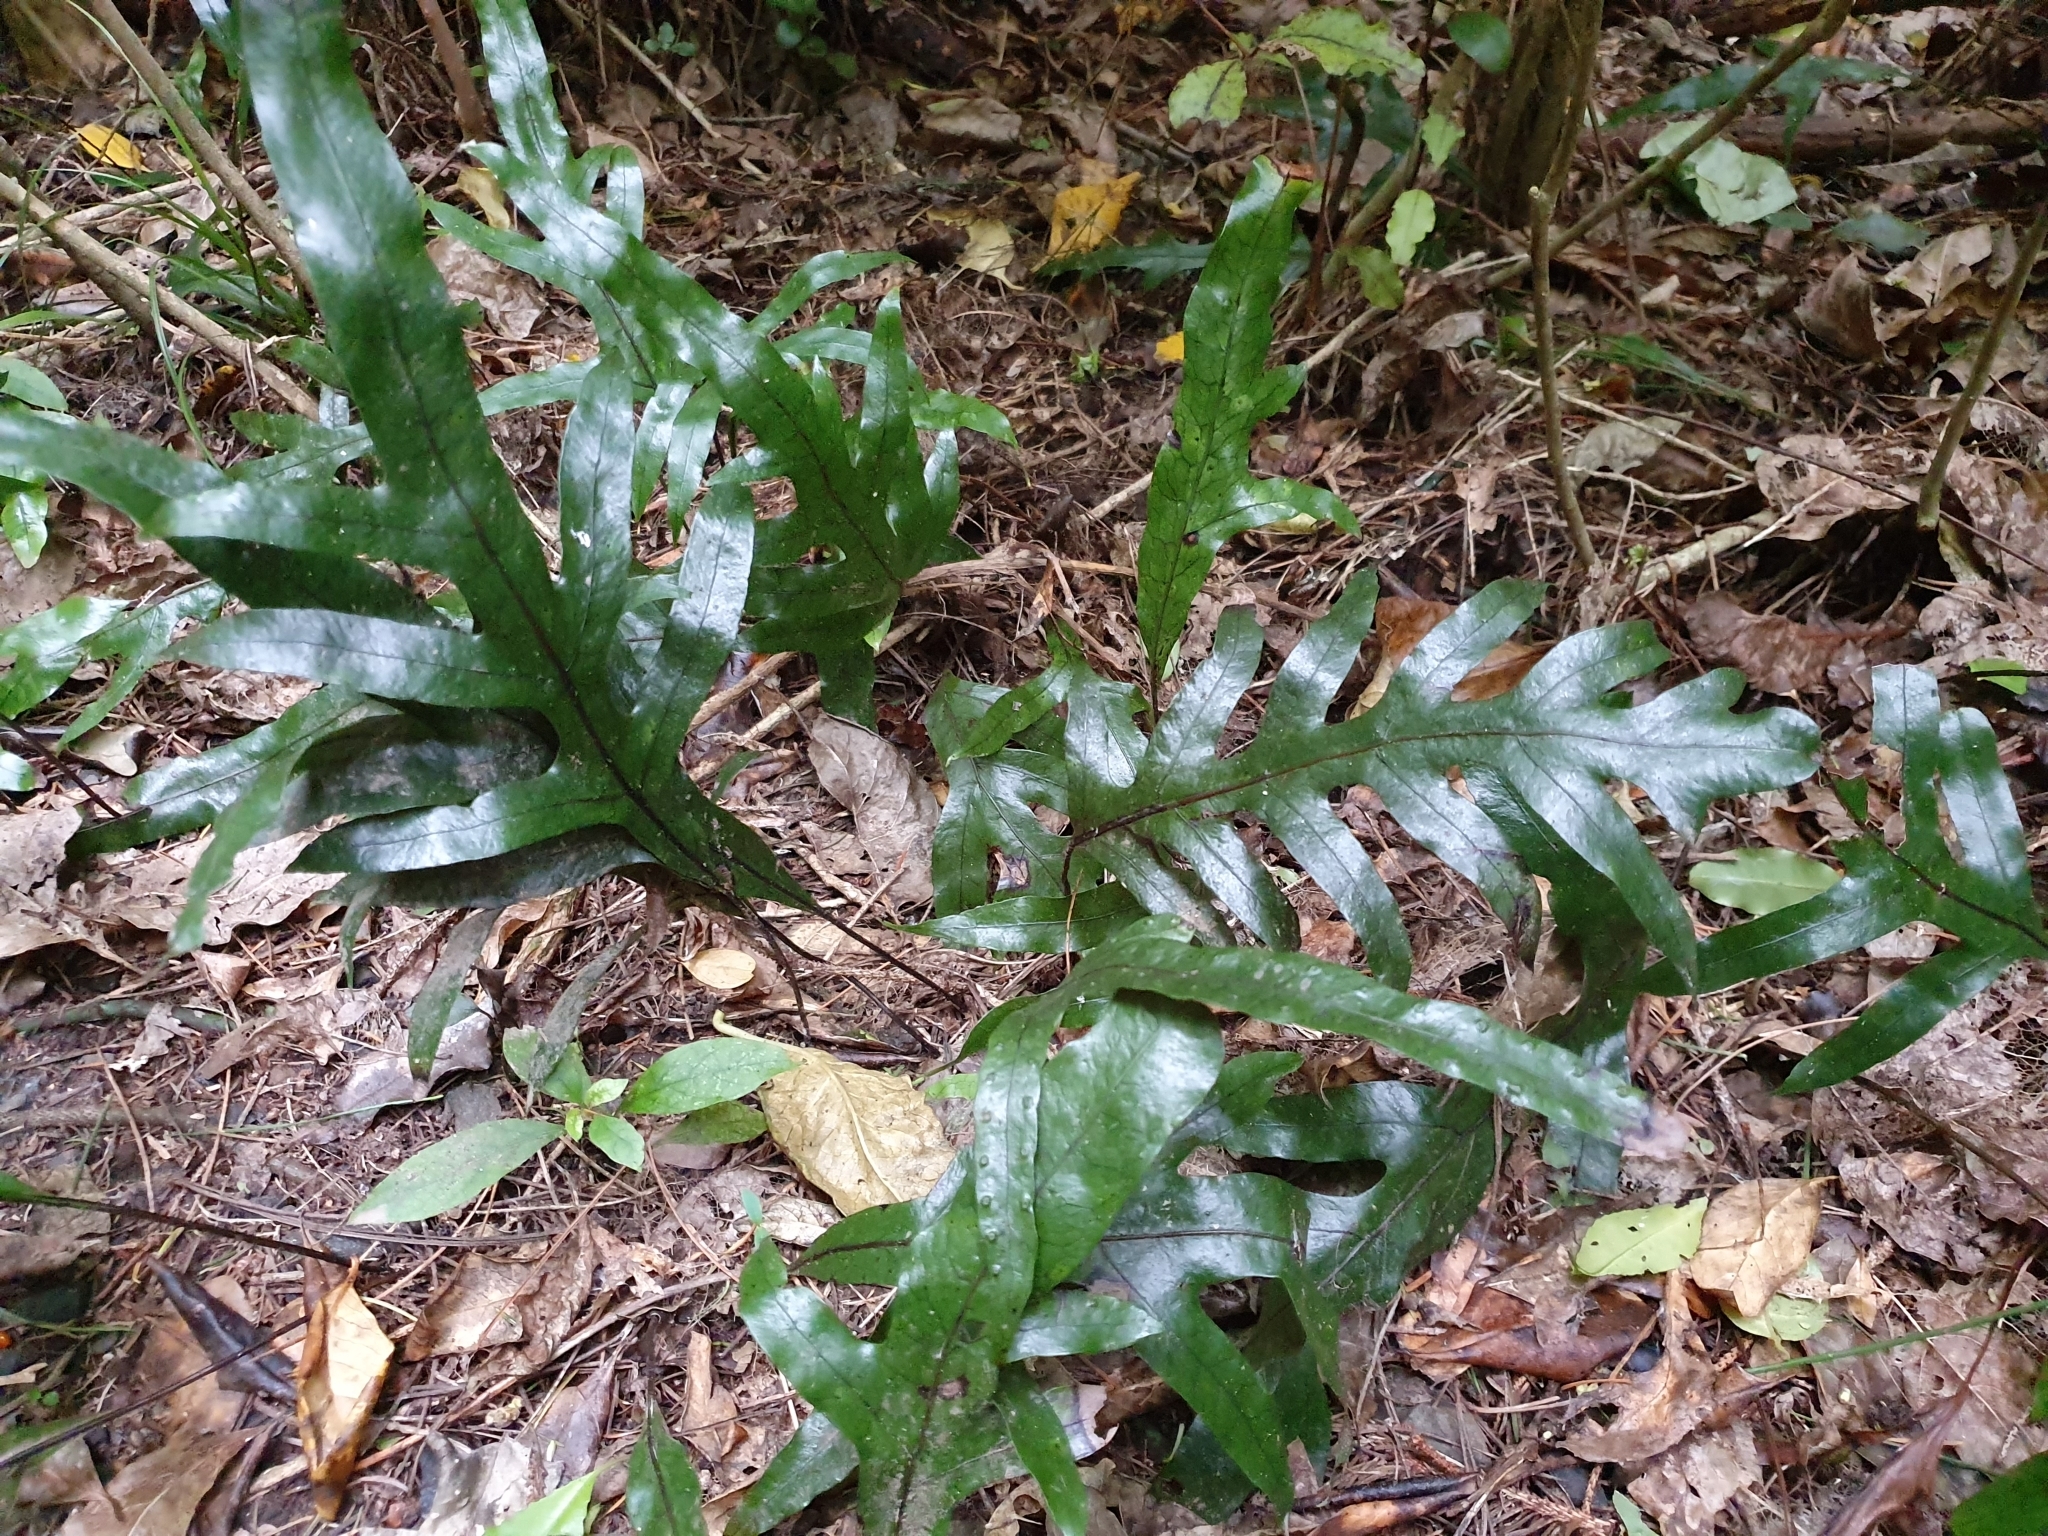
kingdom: Plantae
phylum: Tracheophyta
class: Polypodiopsida
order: Polypodiales
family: Polypodiaceae
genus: Lecanopteris
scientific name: Lecanopteris pustulata
